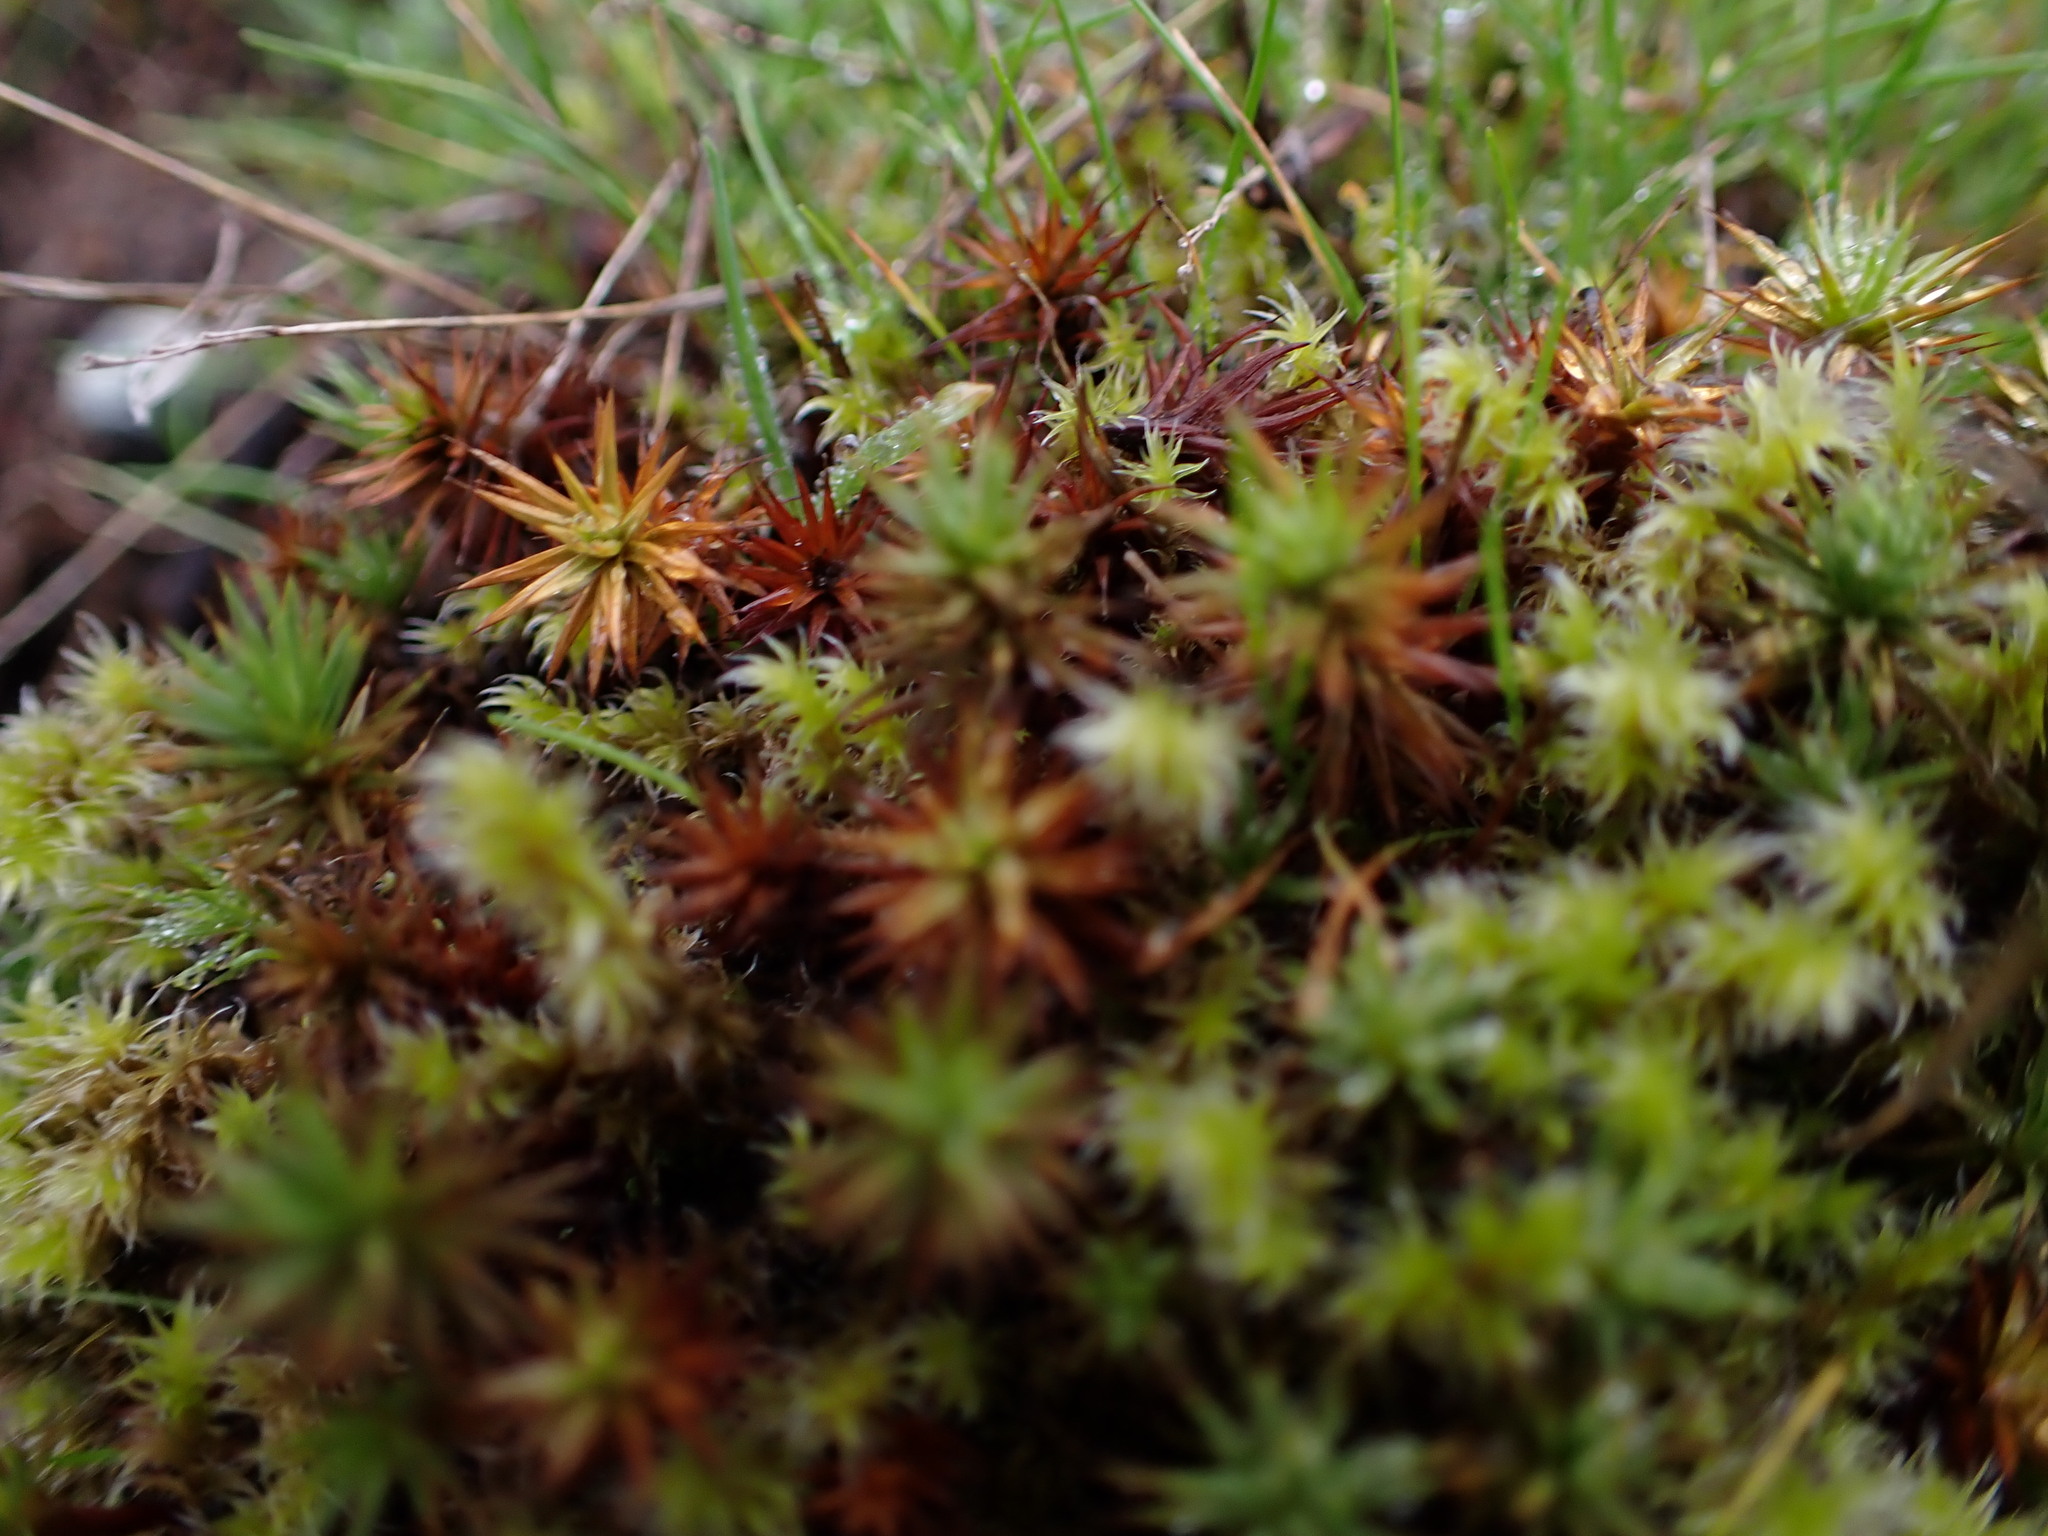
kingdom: Plantae
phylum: Bryophyta
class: Polytrichopsida
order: Polytrichales
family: Polytrichaceae
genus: Polytrichum
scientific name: Polytrichum juniperinum
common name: Juniper haircap moss
